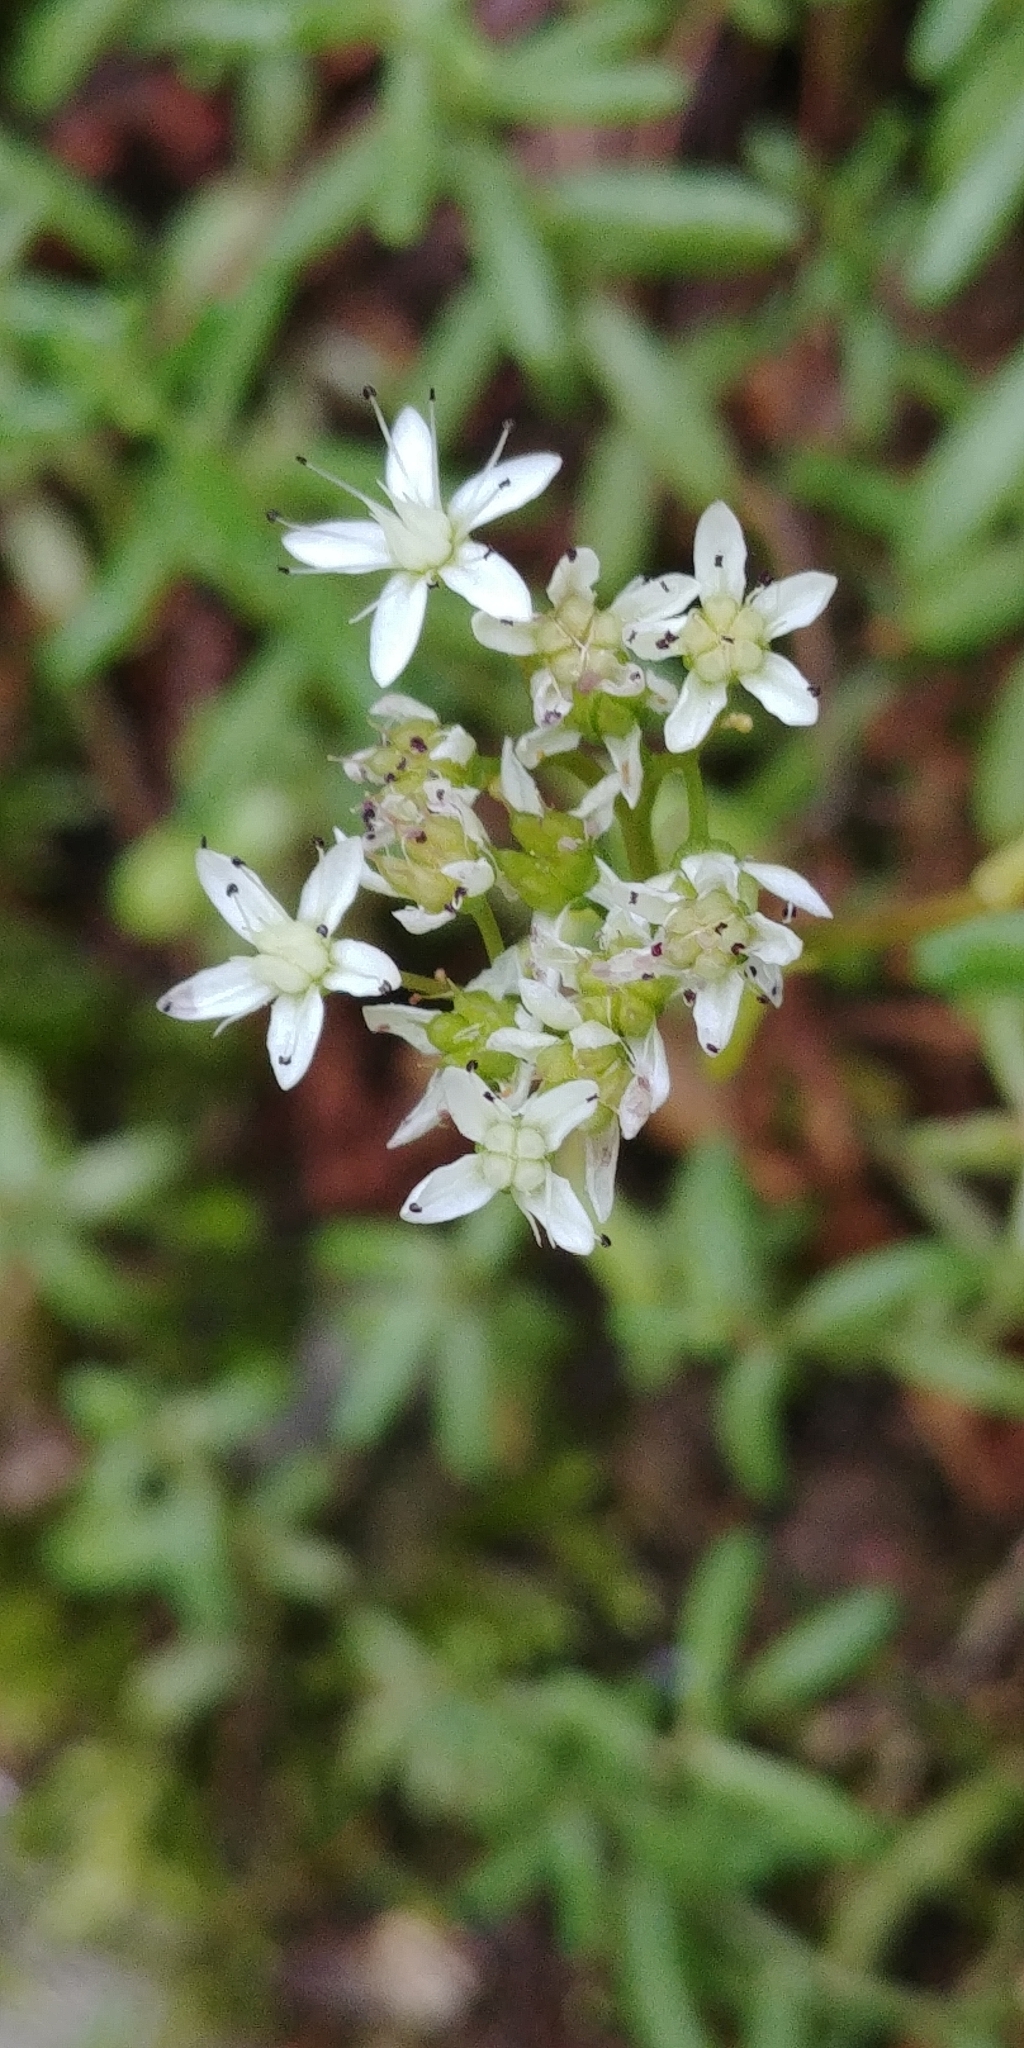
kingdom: Plantae
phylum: Tracheophyta
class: Magnoliopsida
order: Saxifragales
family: Crassulaceae
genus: Sedum
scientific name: Sedum album
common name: White stonecrop
